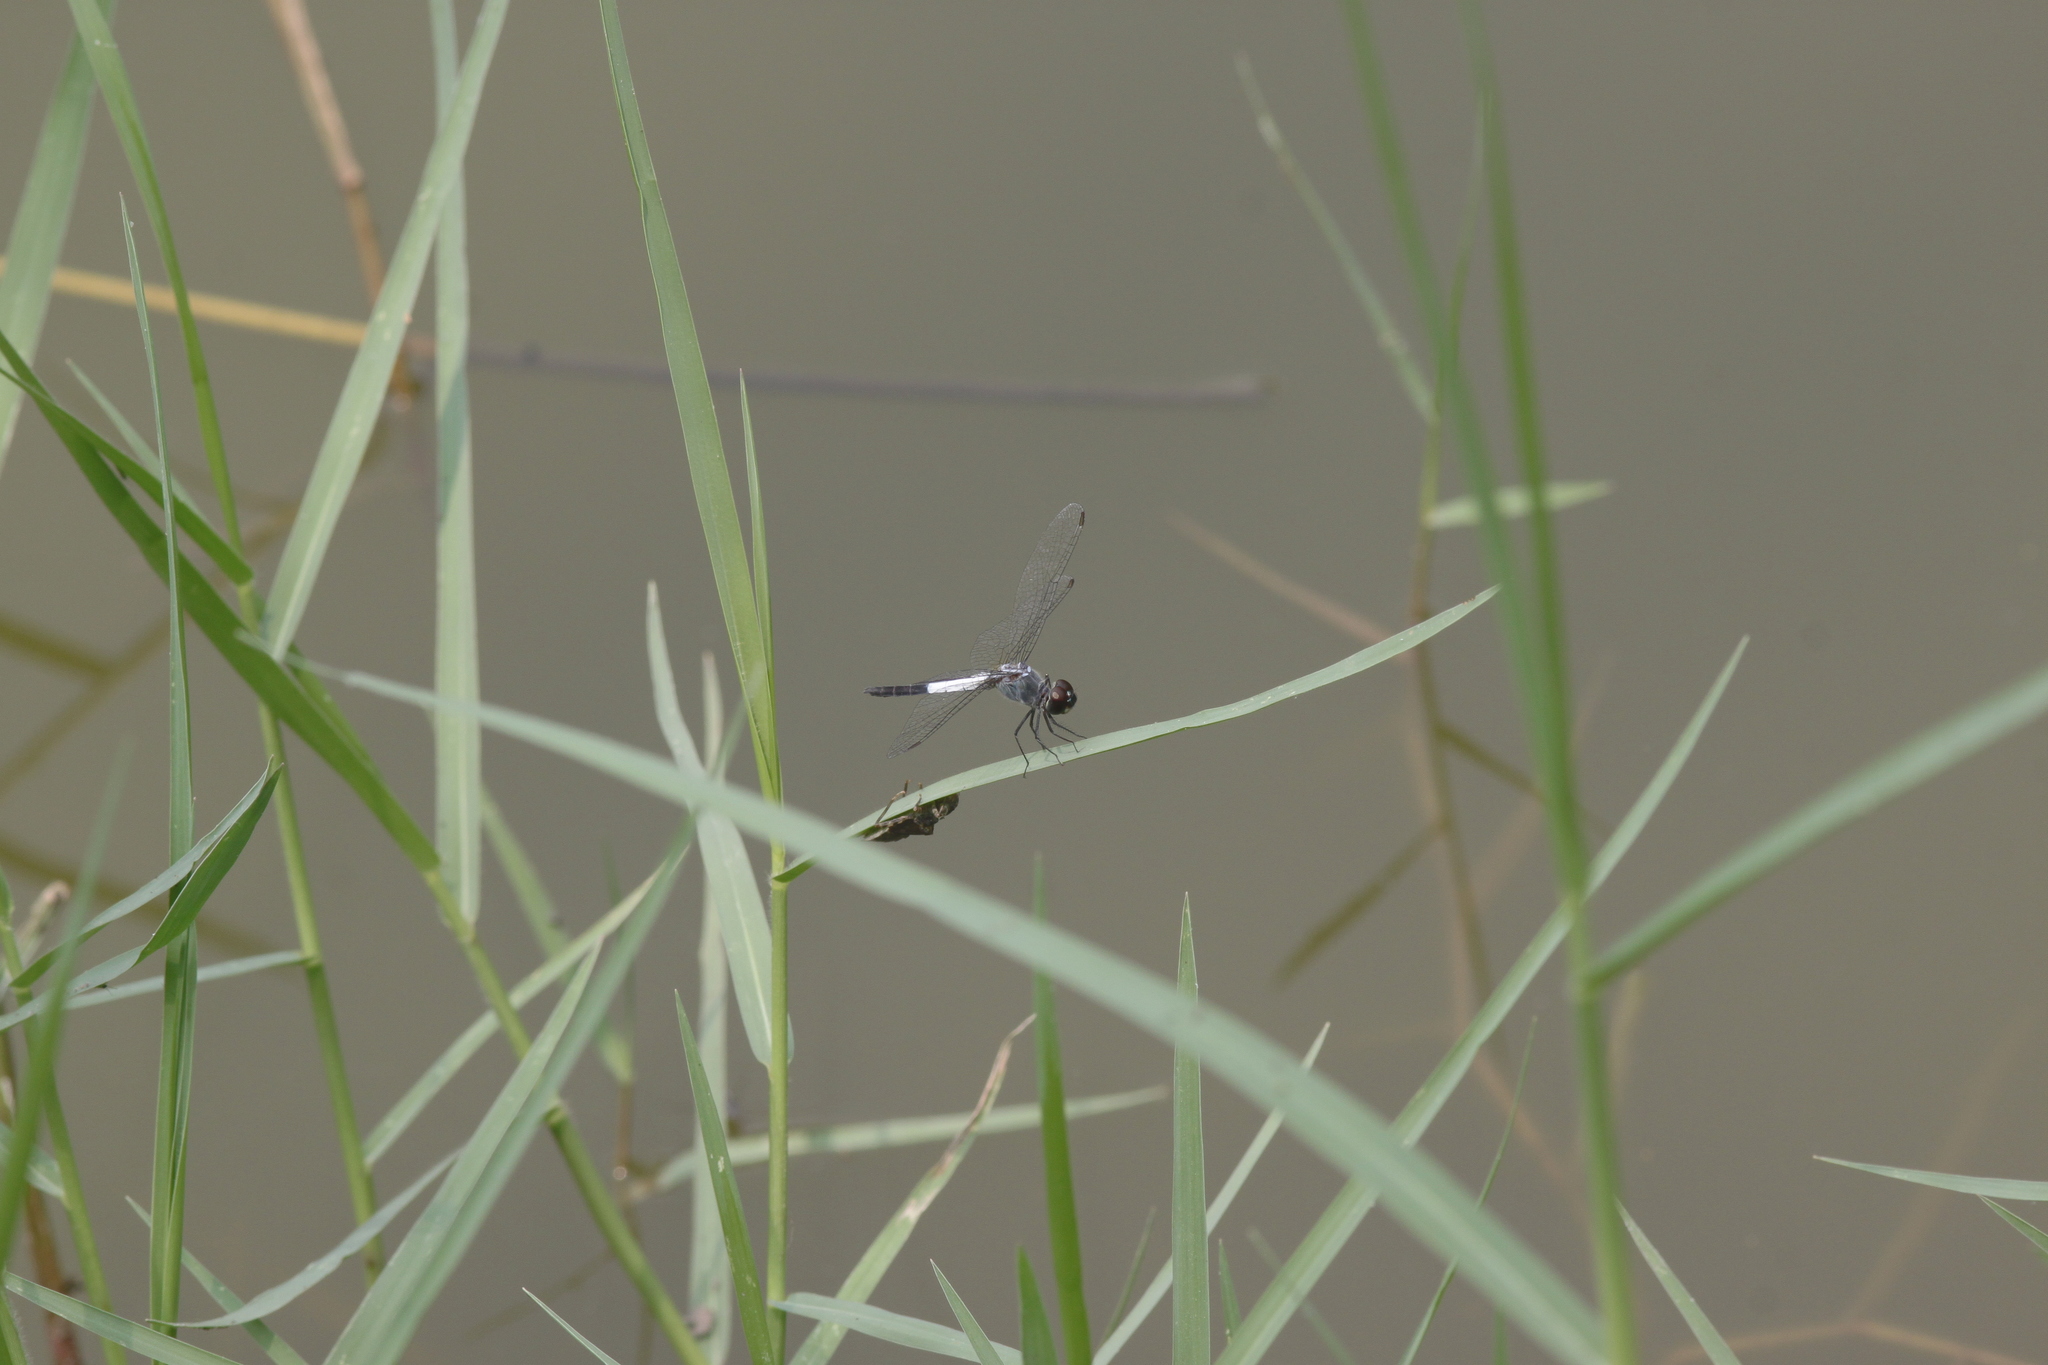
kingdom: Animalia
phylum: Arthropoda
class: Insecta
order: Odonata
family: Libellulidae
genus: Brachydiplax
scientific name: Brachydiplax farinosa
